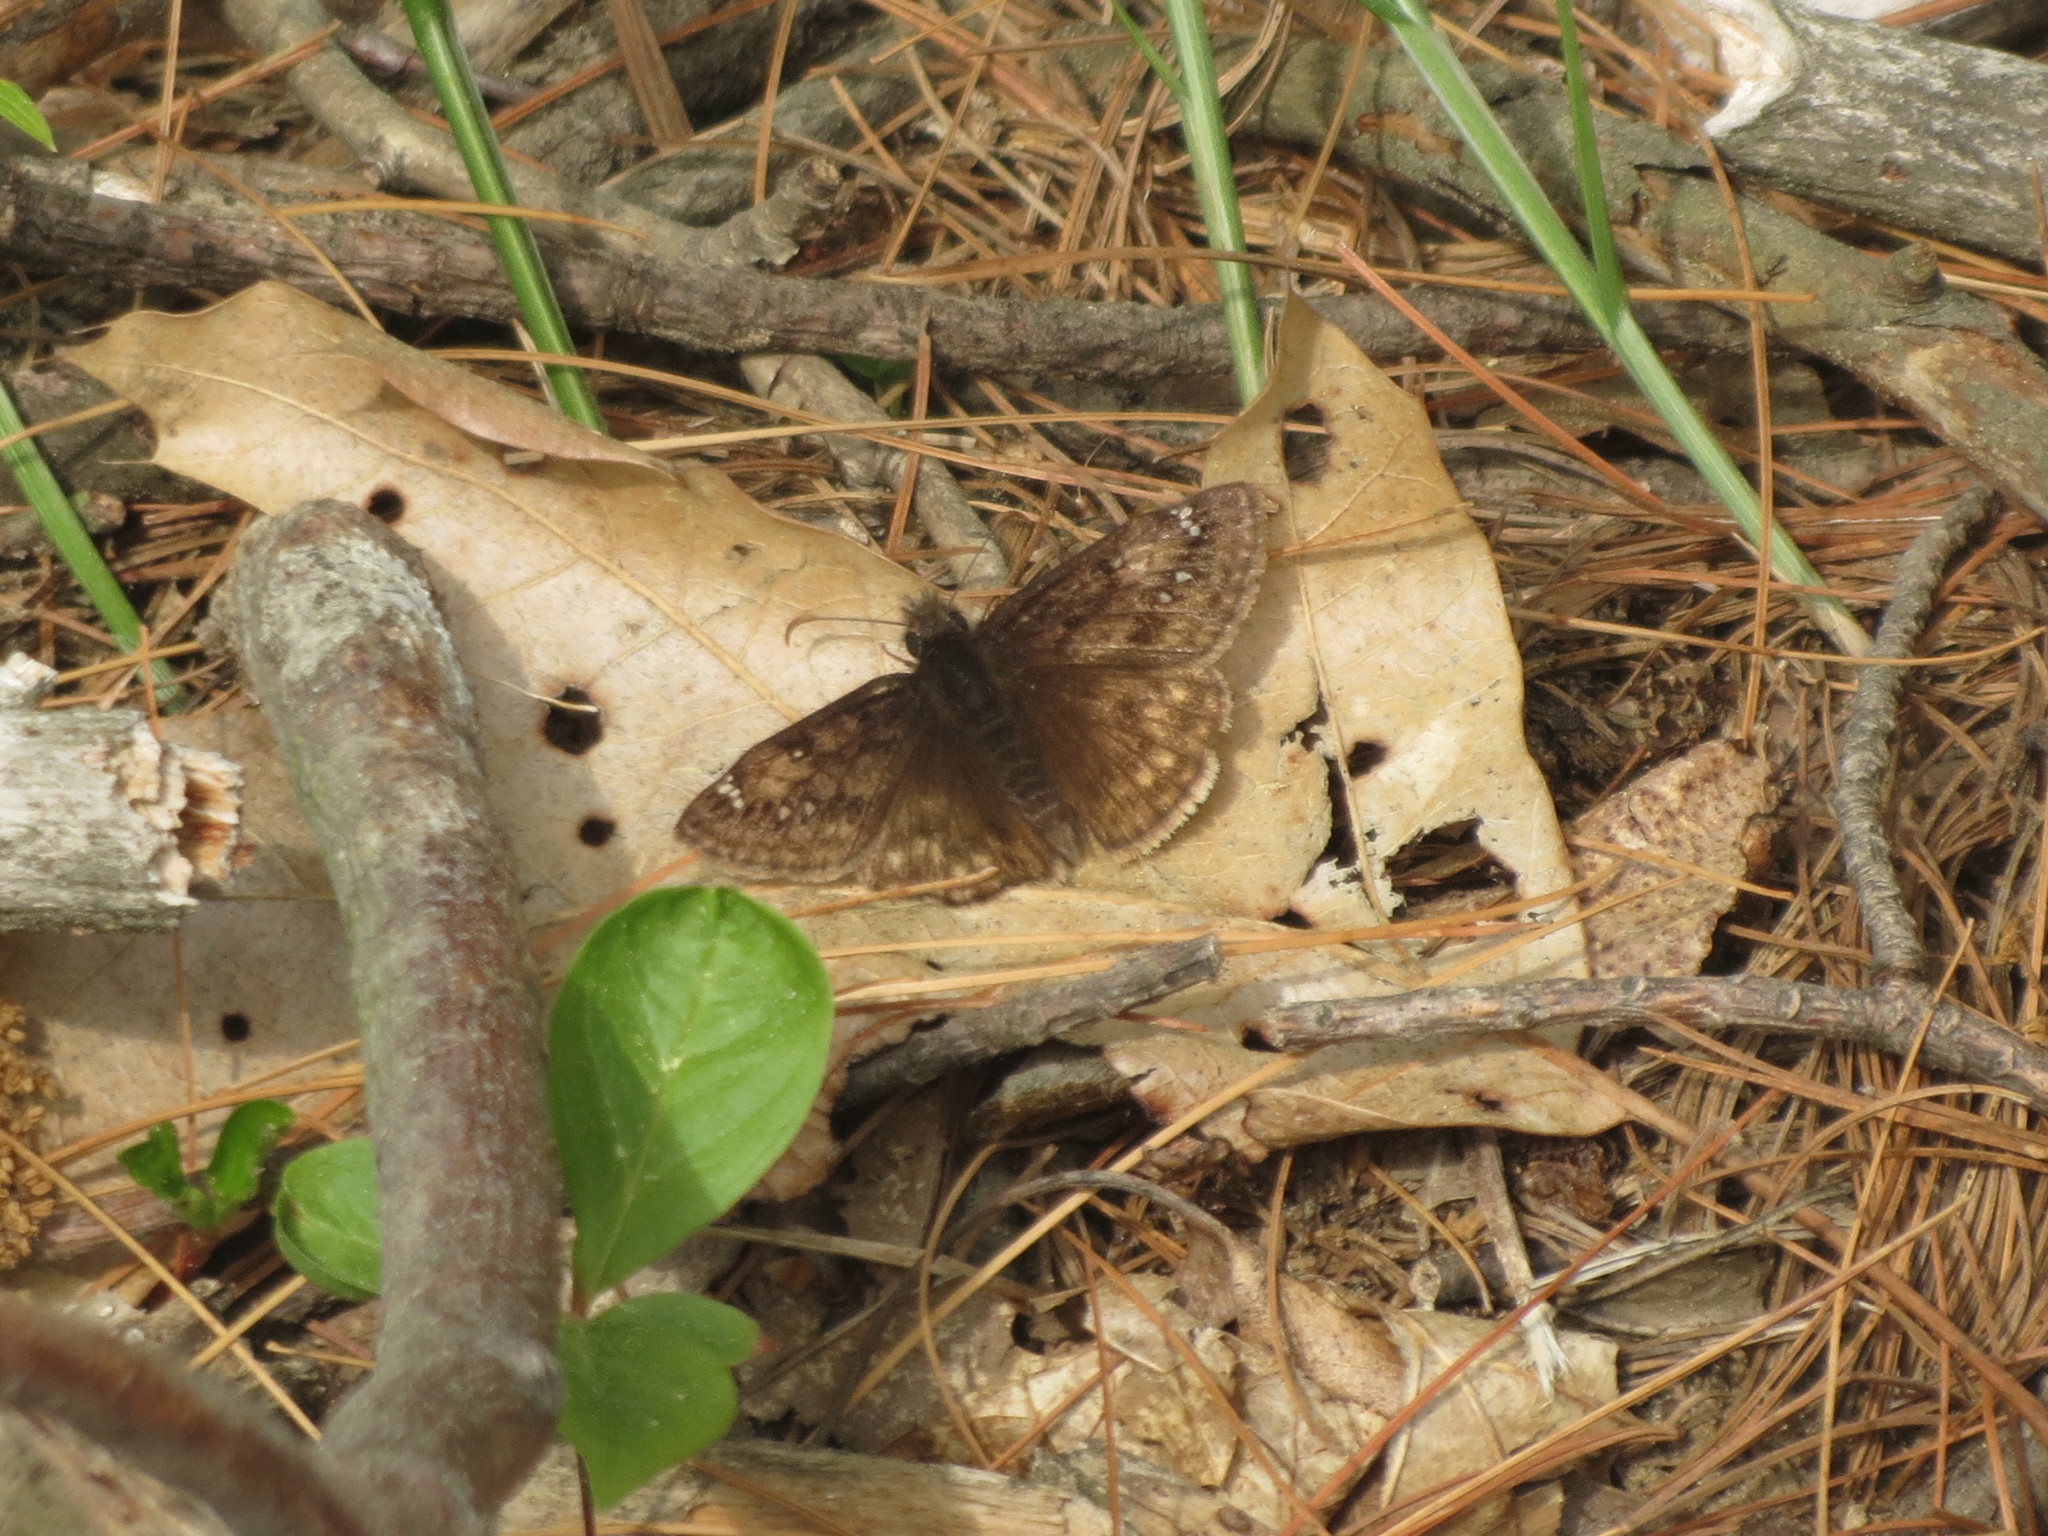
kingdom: Animalia
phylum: Arthropoda
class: Insecta
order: Lepidoptera
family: Hesperiidae
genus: Erynnis
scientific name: Erynnis juvenalis
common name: Juvenal's duskywing
